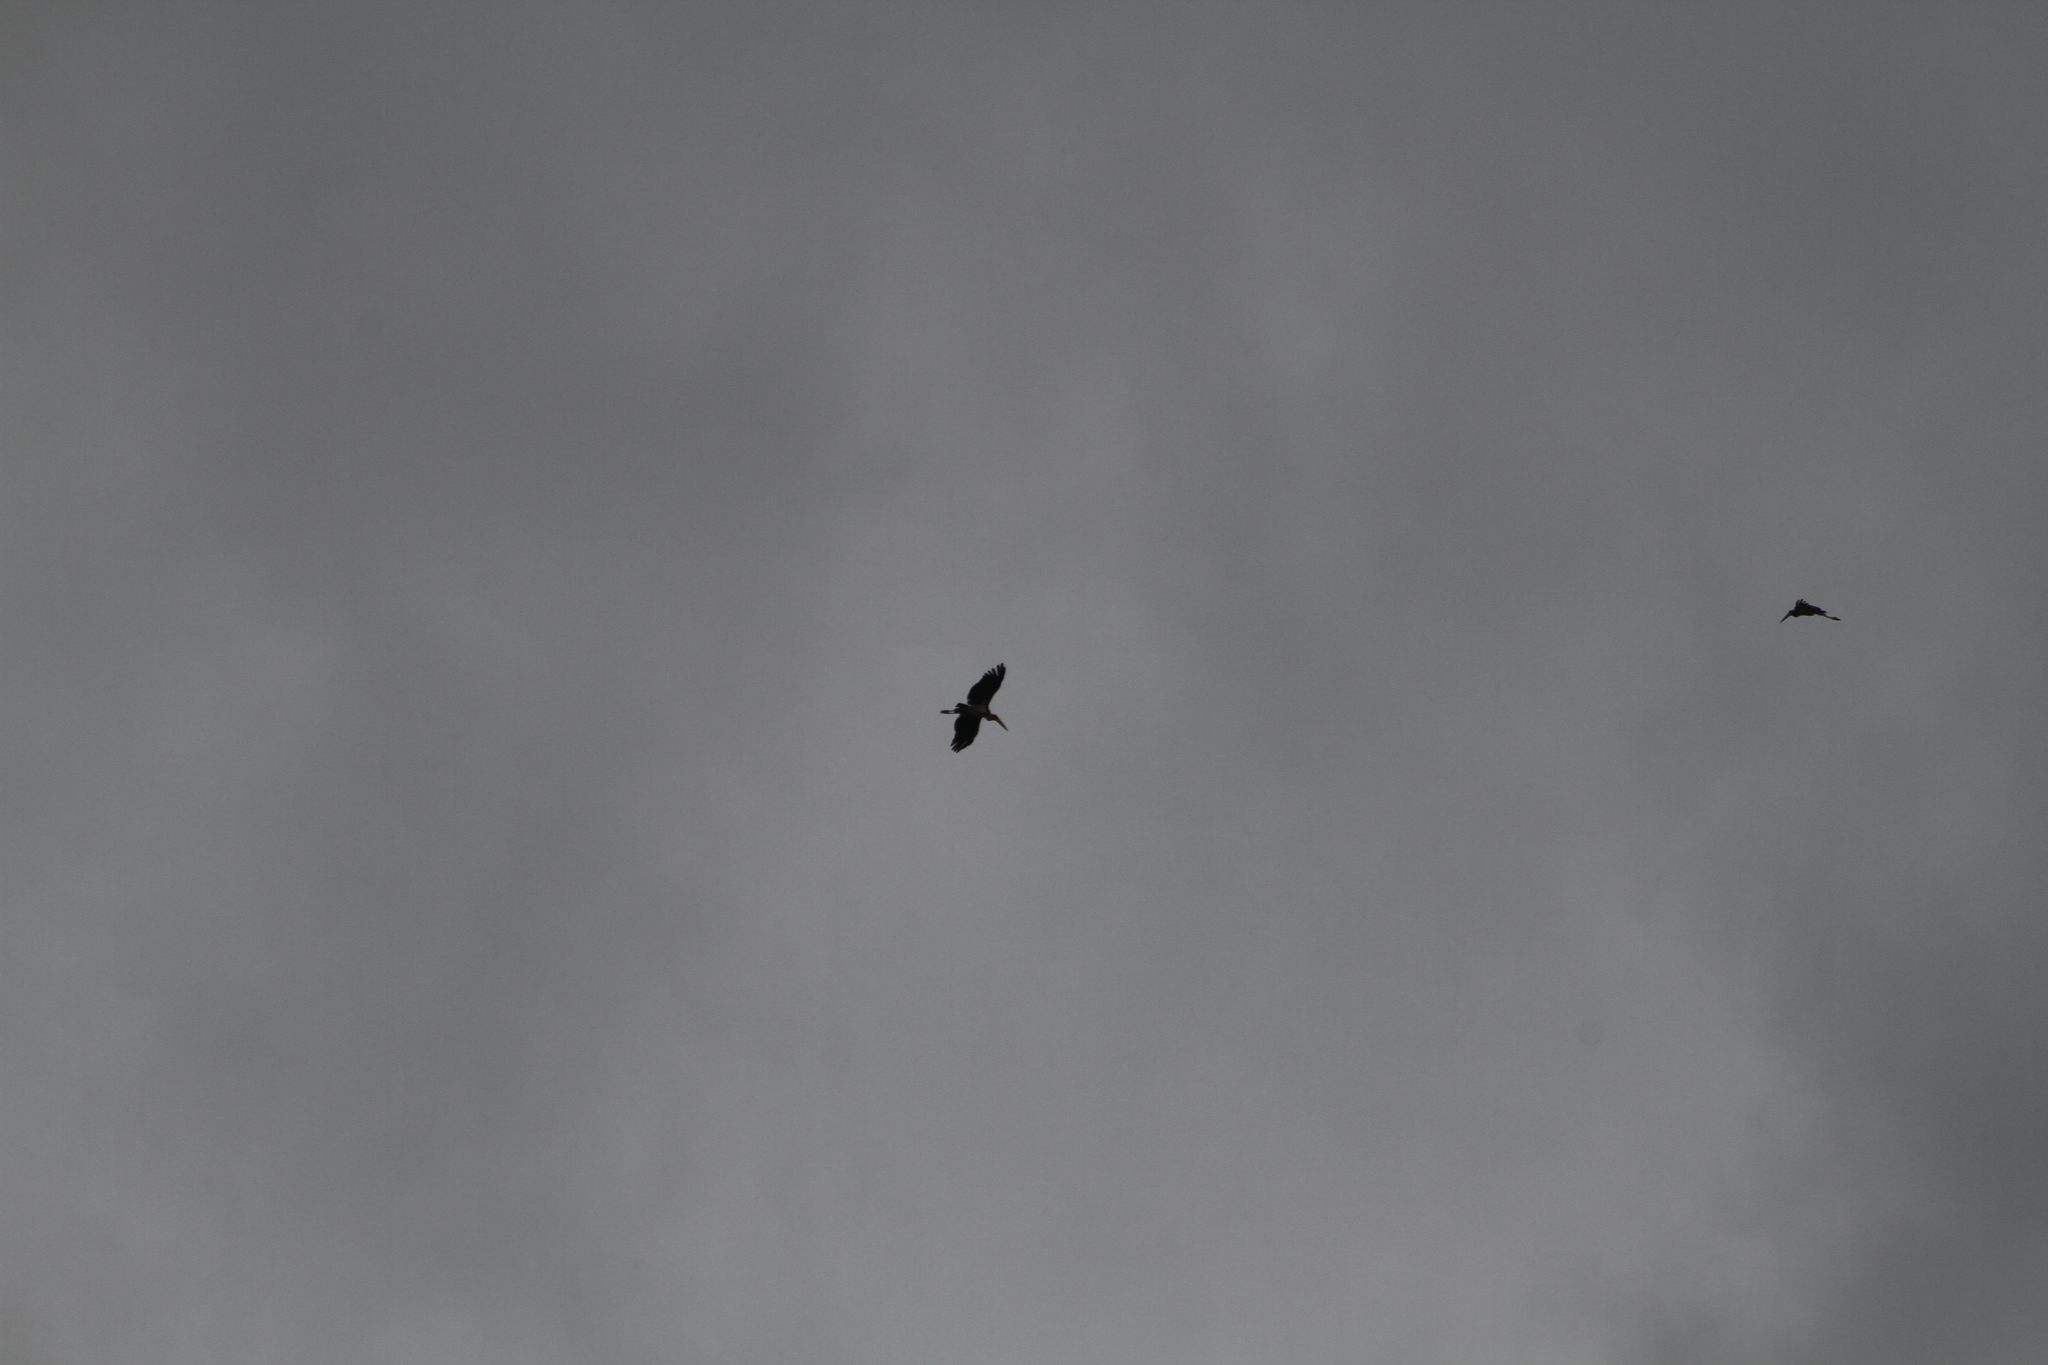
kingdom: Animalia
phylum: Chordata
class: Aves
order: Ciconiiformes
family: Ciconiidae
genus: Leptoptilos
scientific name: Leptoptilos javanicus
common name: Lesser adjutant
